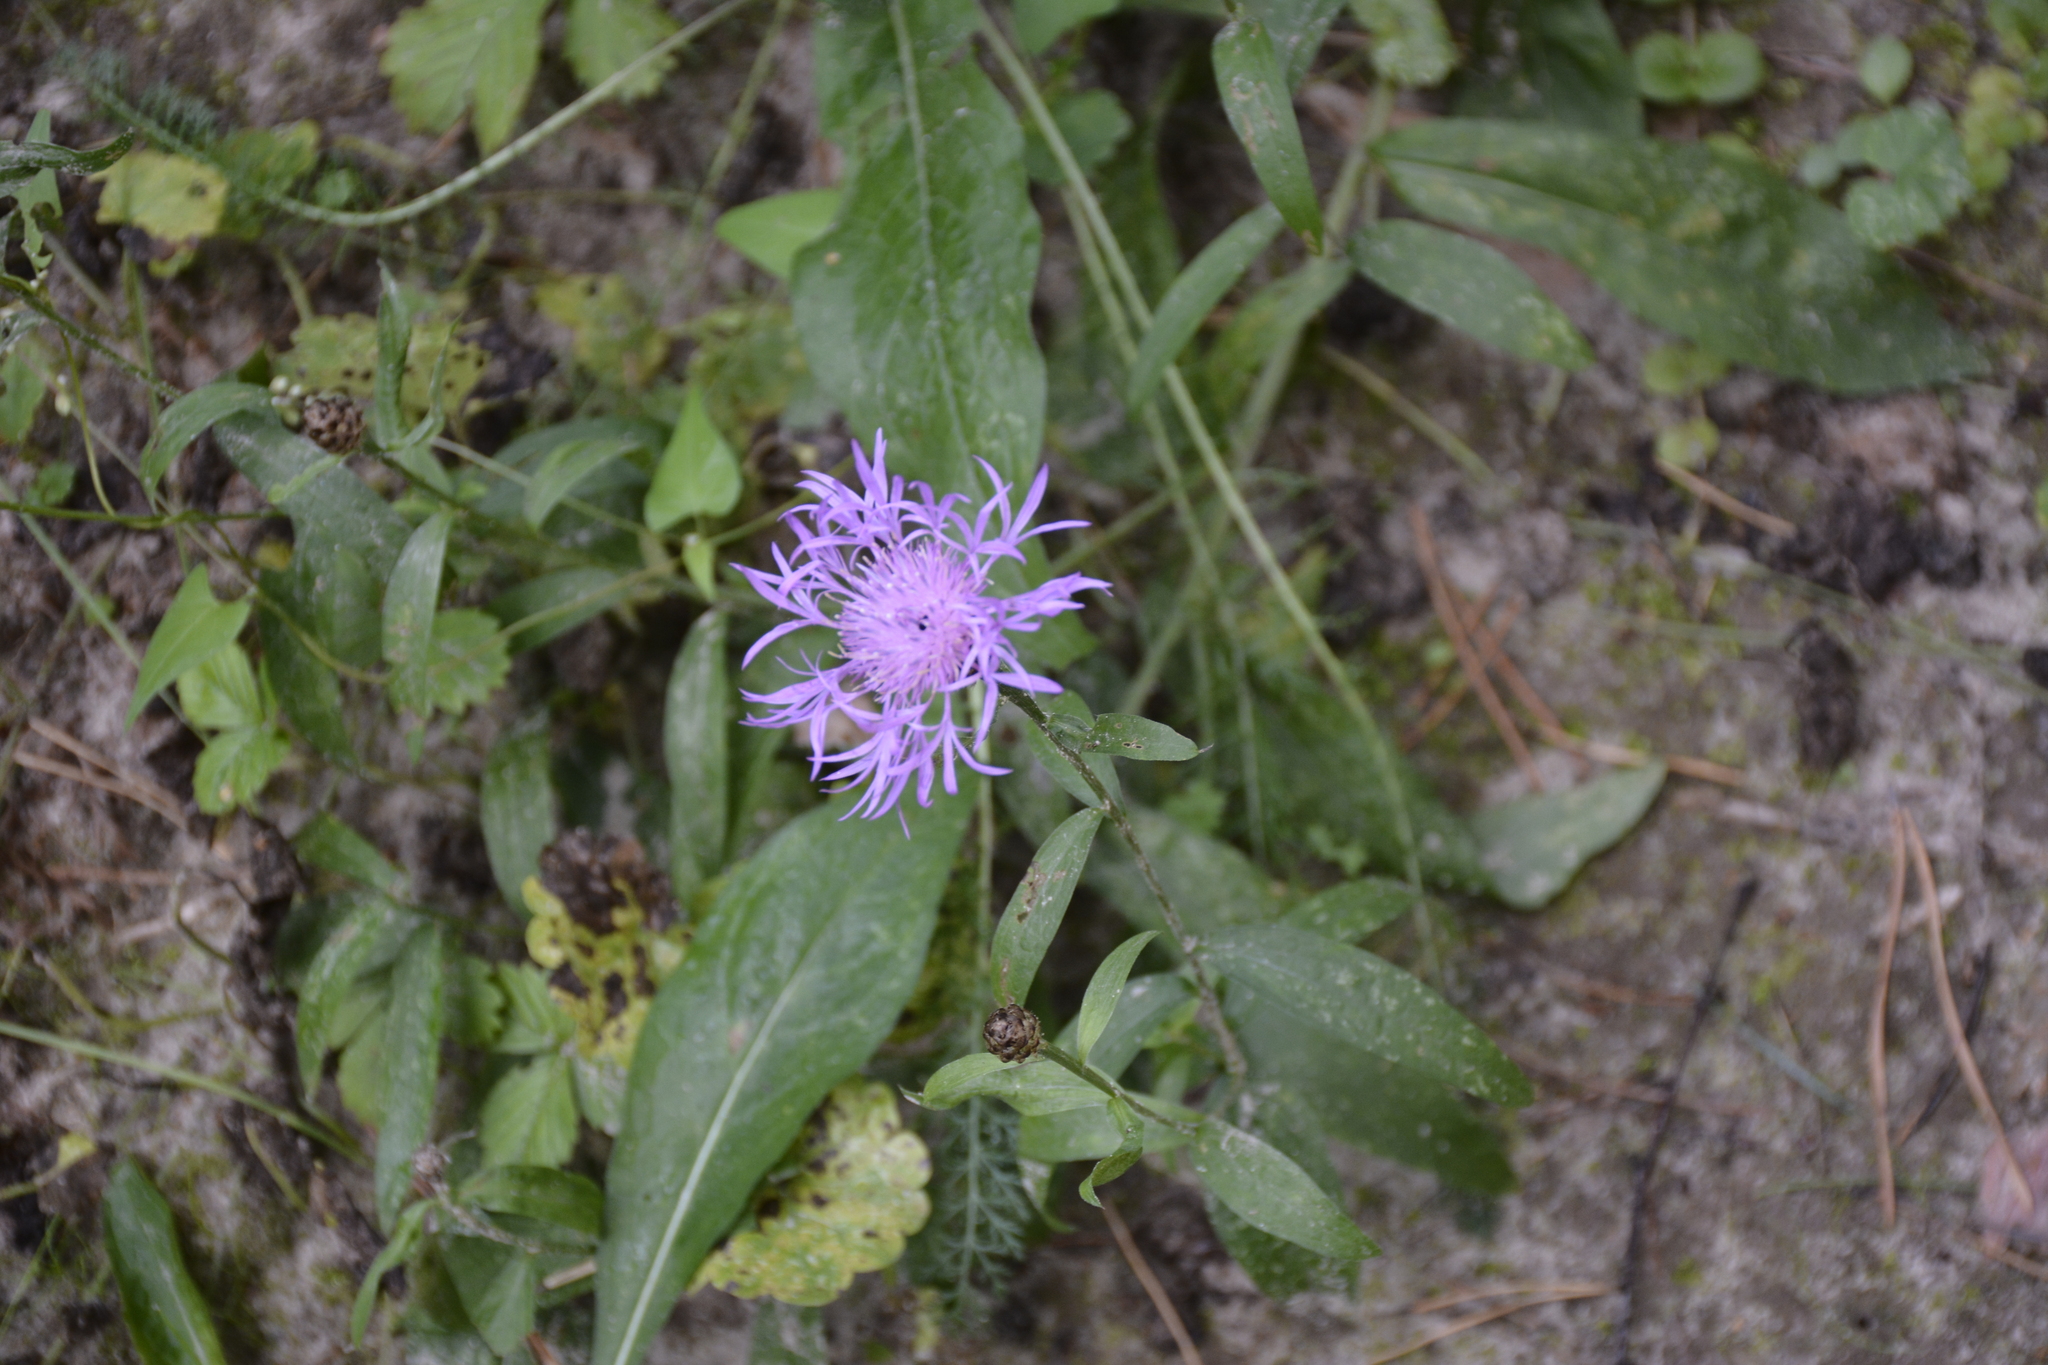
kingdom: Plantae
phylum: Tracheophyta
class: Magnoliopsida
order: Asterales
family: Asteraceae
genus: Centaurea
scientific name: Centaurea jacea
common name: Brown knapweed
